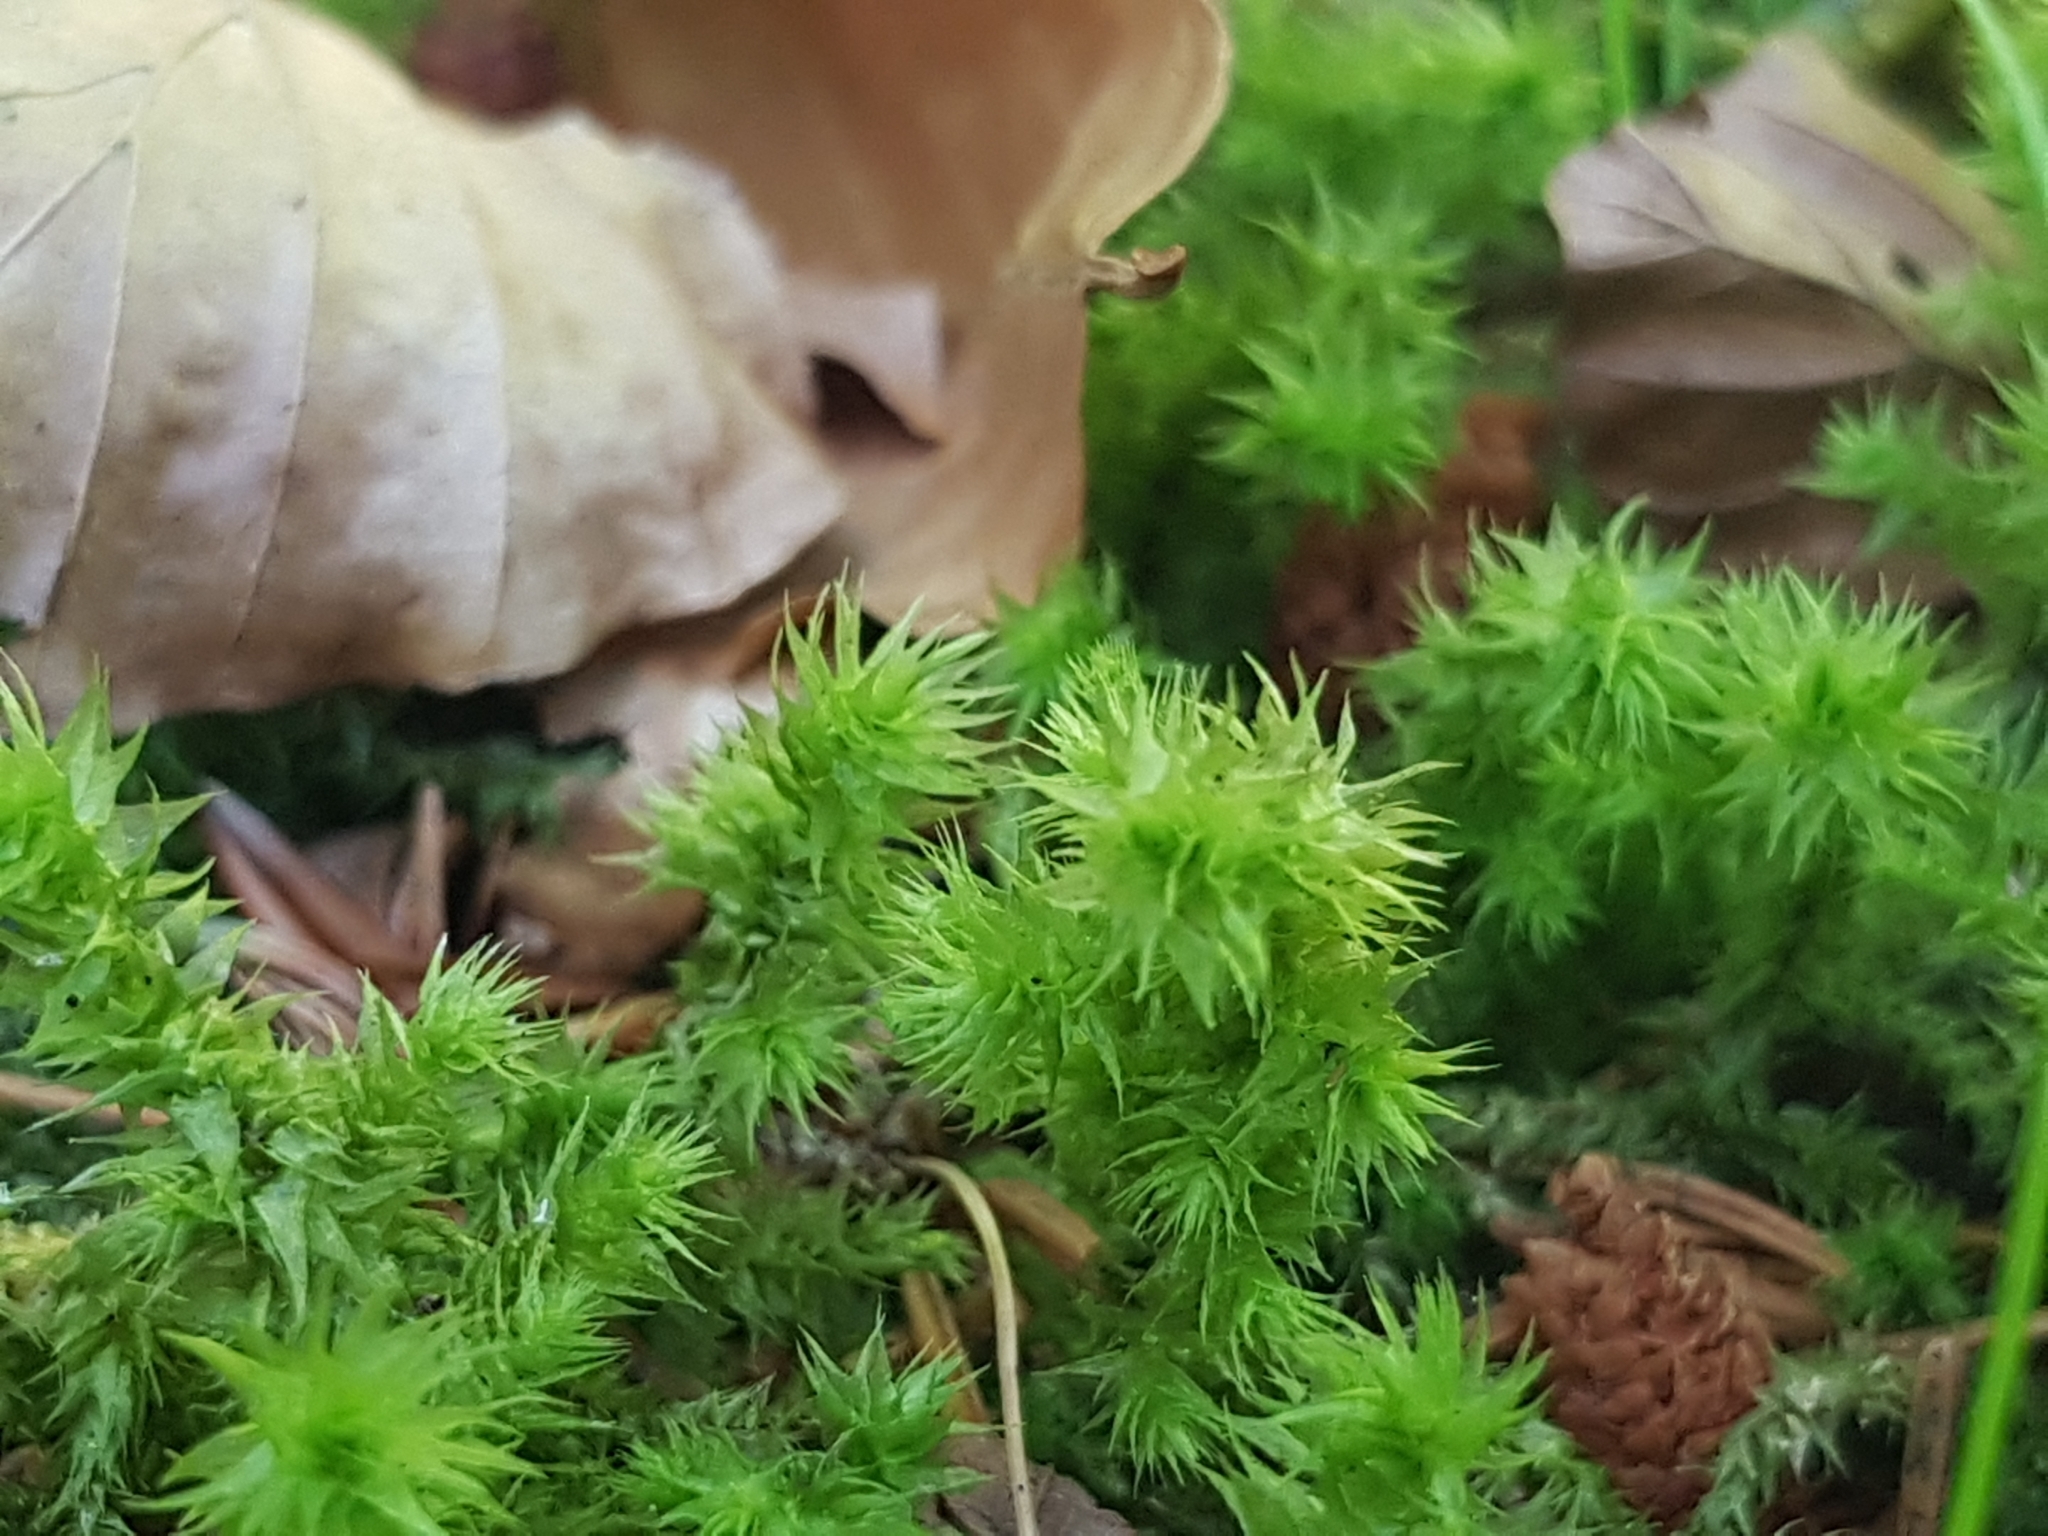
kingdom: Plantae
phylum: Bryophyta
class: Bryopsida
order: Hypnales
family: Hylocomiaceae
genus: Hylocomiadelphus
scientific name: Hylocomiadelphus triquetrus
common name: Rough goose neck moss
